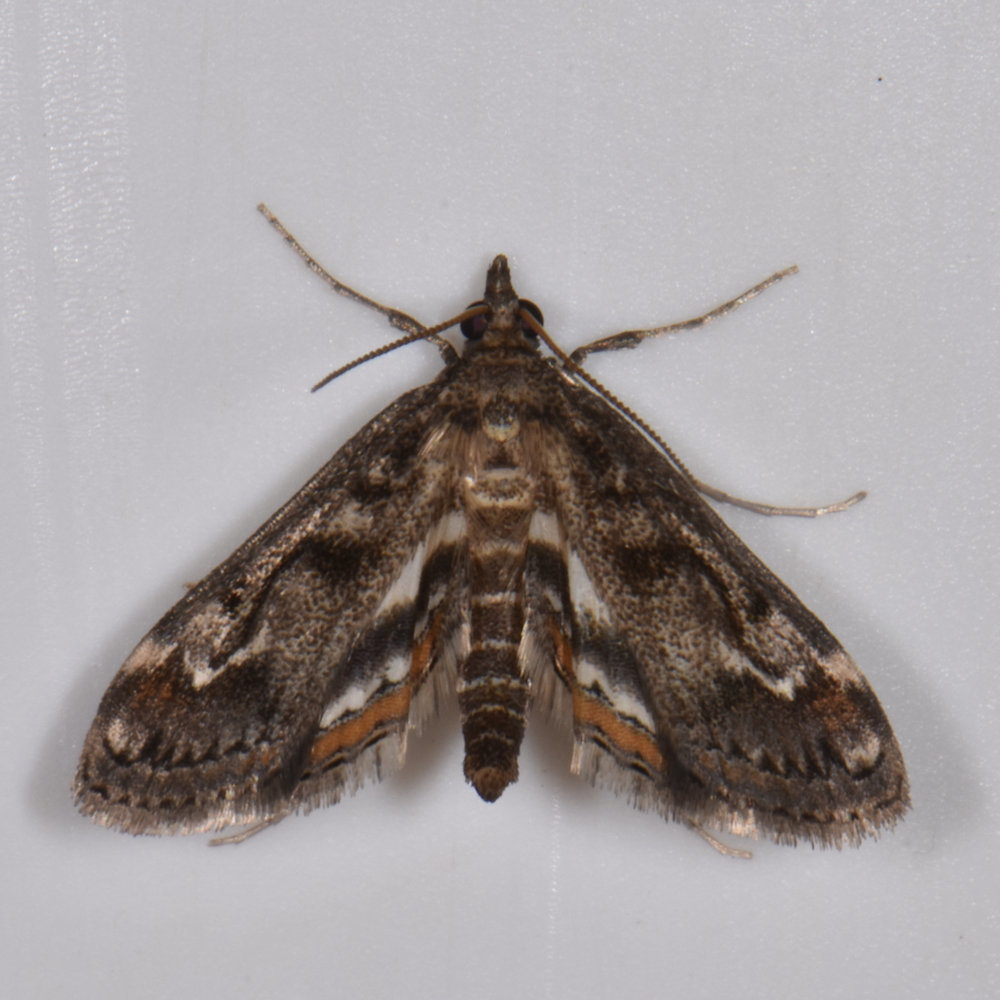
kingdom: Animalia
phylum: Arthropoda
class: Insecta
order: Lepidoptera
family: Crambidae
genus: Parapoynx
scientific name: Parapoynx obscuralis
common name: American china-mark
